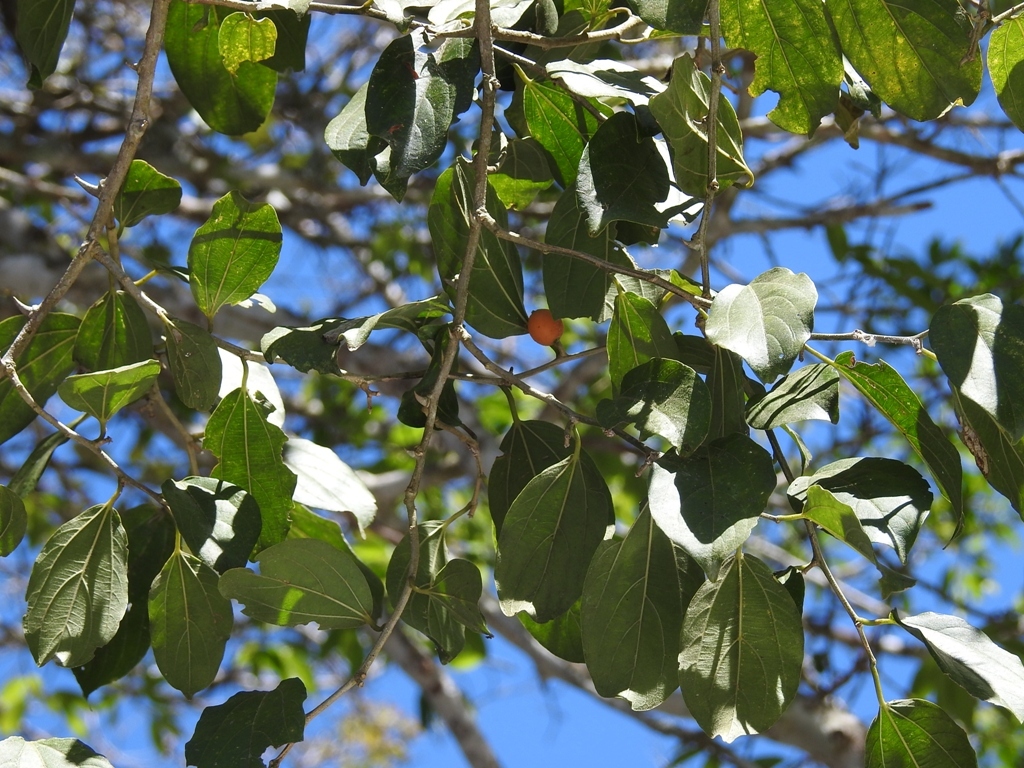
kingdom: Plantae
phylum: Tracheophyta
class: Magnoliopsida
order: Rosales
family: Cannabaceae
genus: Celtis
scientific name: Celtis iguanaea
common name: Iguana hackberry
